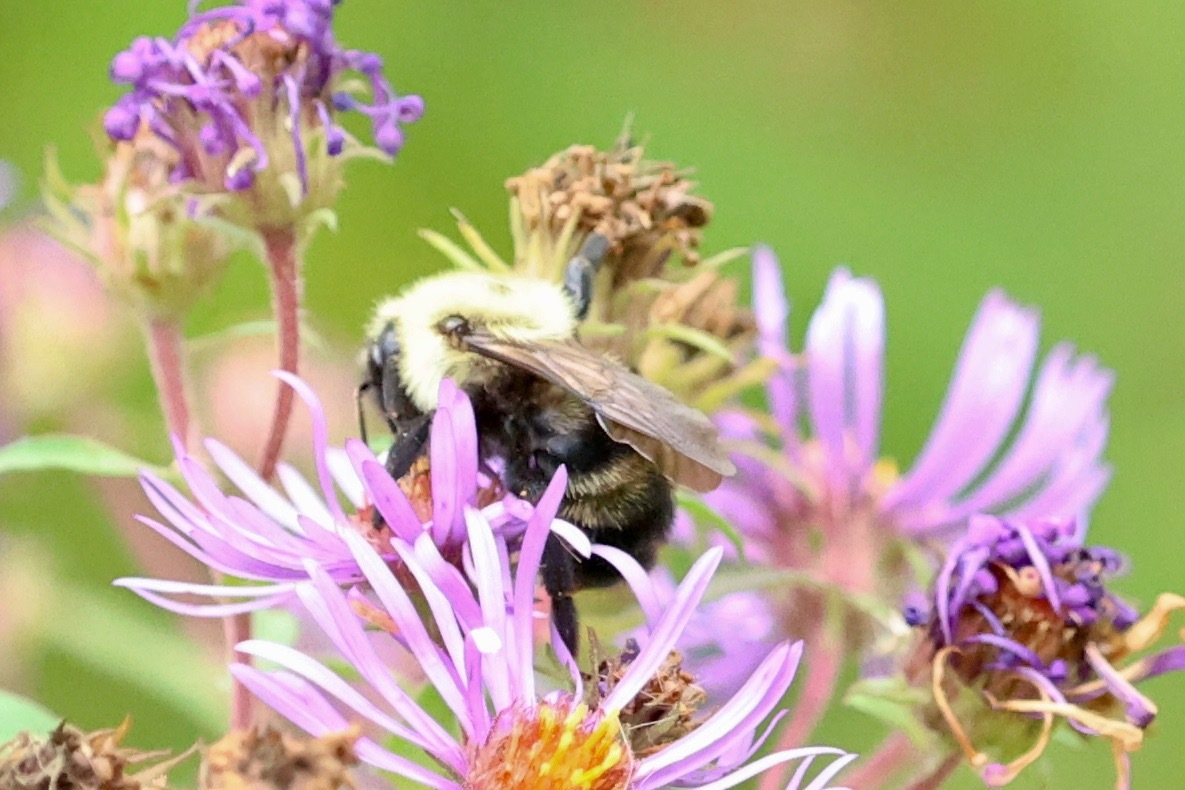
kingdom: Animalia
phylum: Arthropoda
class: Insecta
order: Hymenoptera
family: Apidae
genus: Bombus
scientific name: Bombus citrinus
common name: Lemon cuckoo bumble bee
